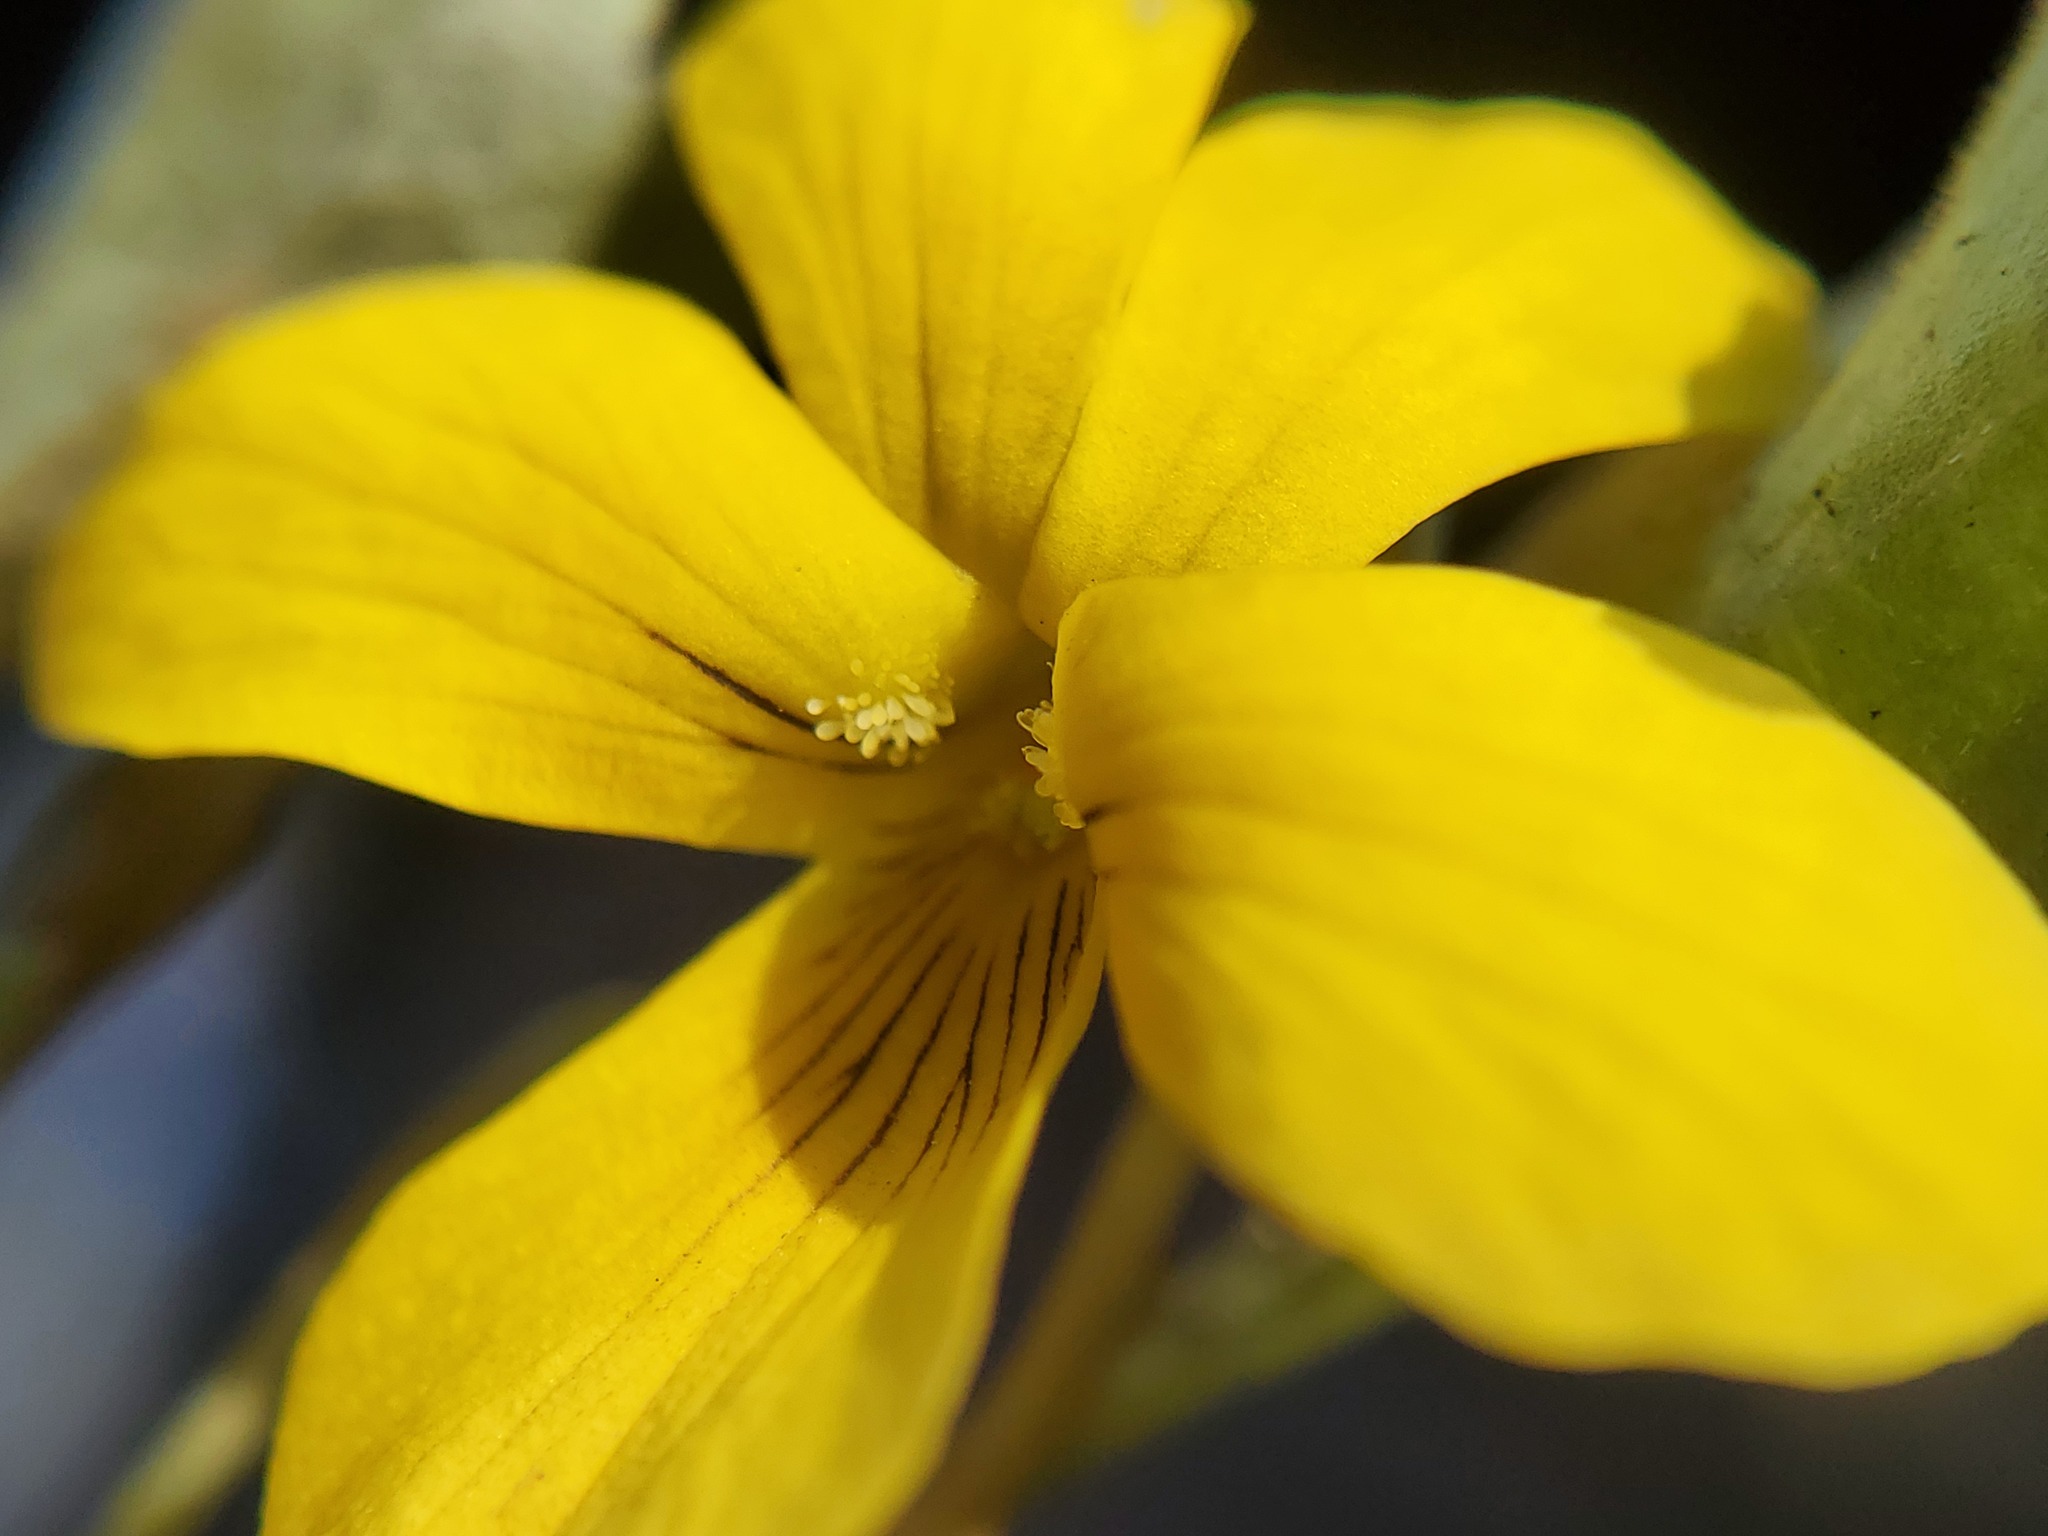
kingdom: Plantae
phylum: Tracheophyta
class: Magnoliopsida
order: Malpighiales
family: Violaceae
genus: Viola
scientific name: Viola lobata
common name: Pine violet
